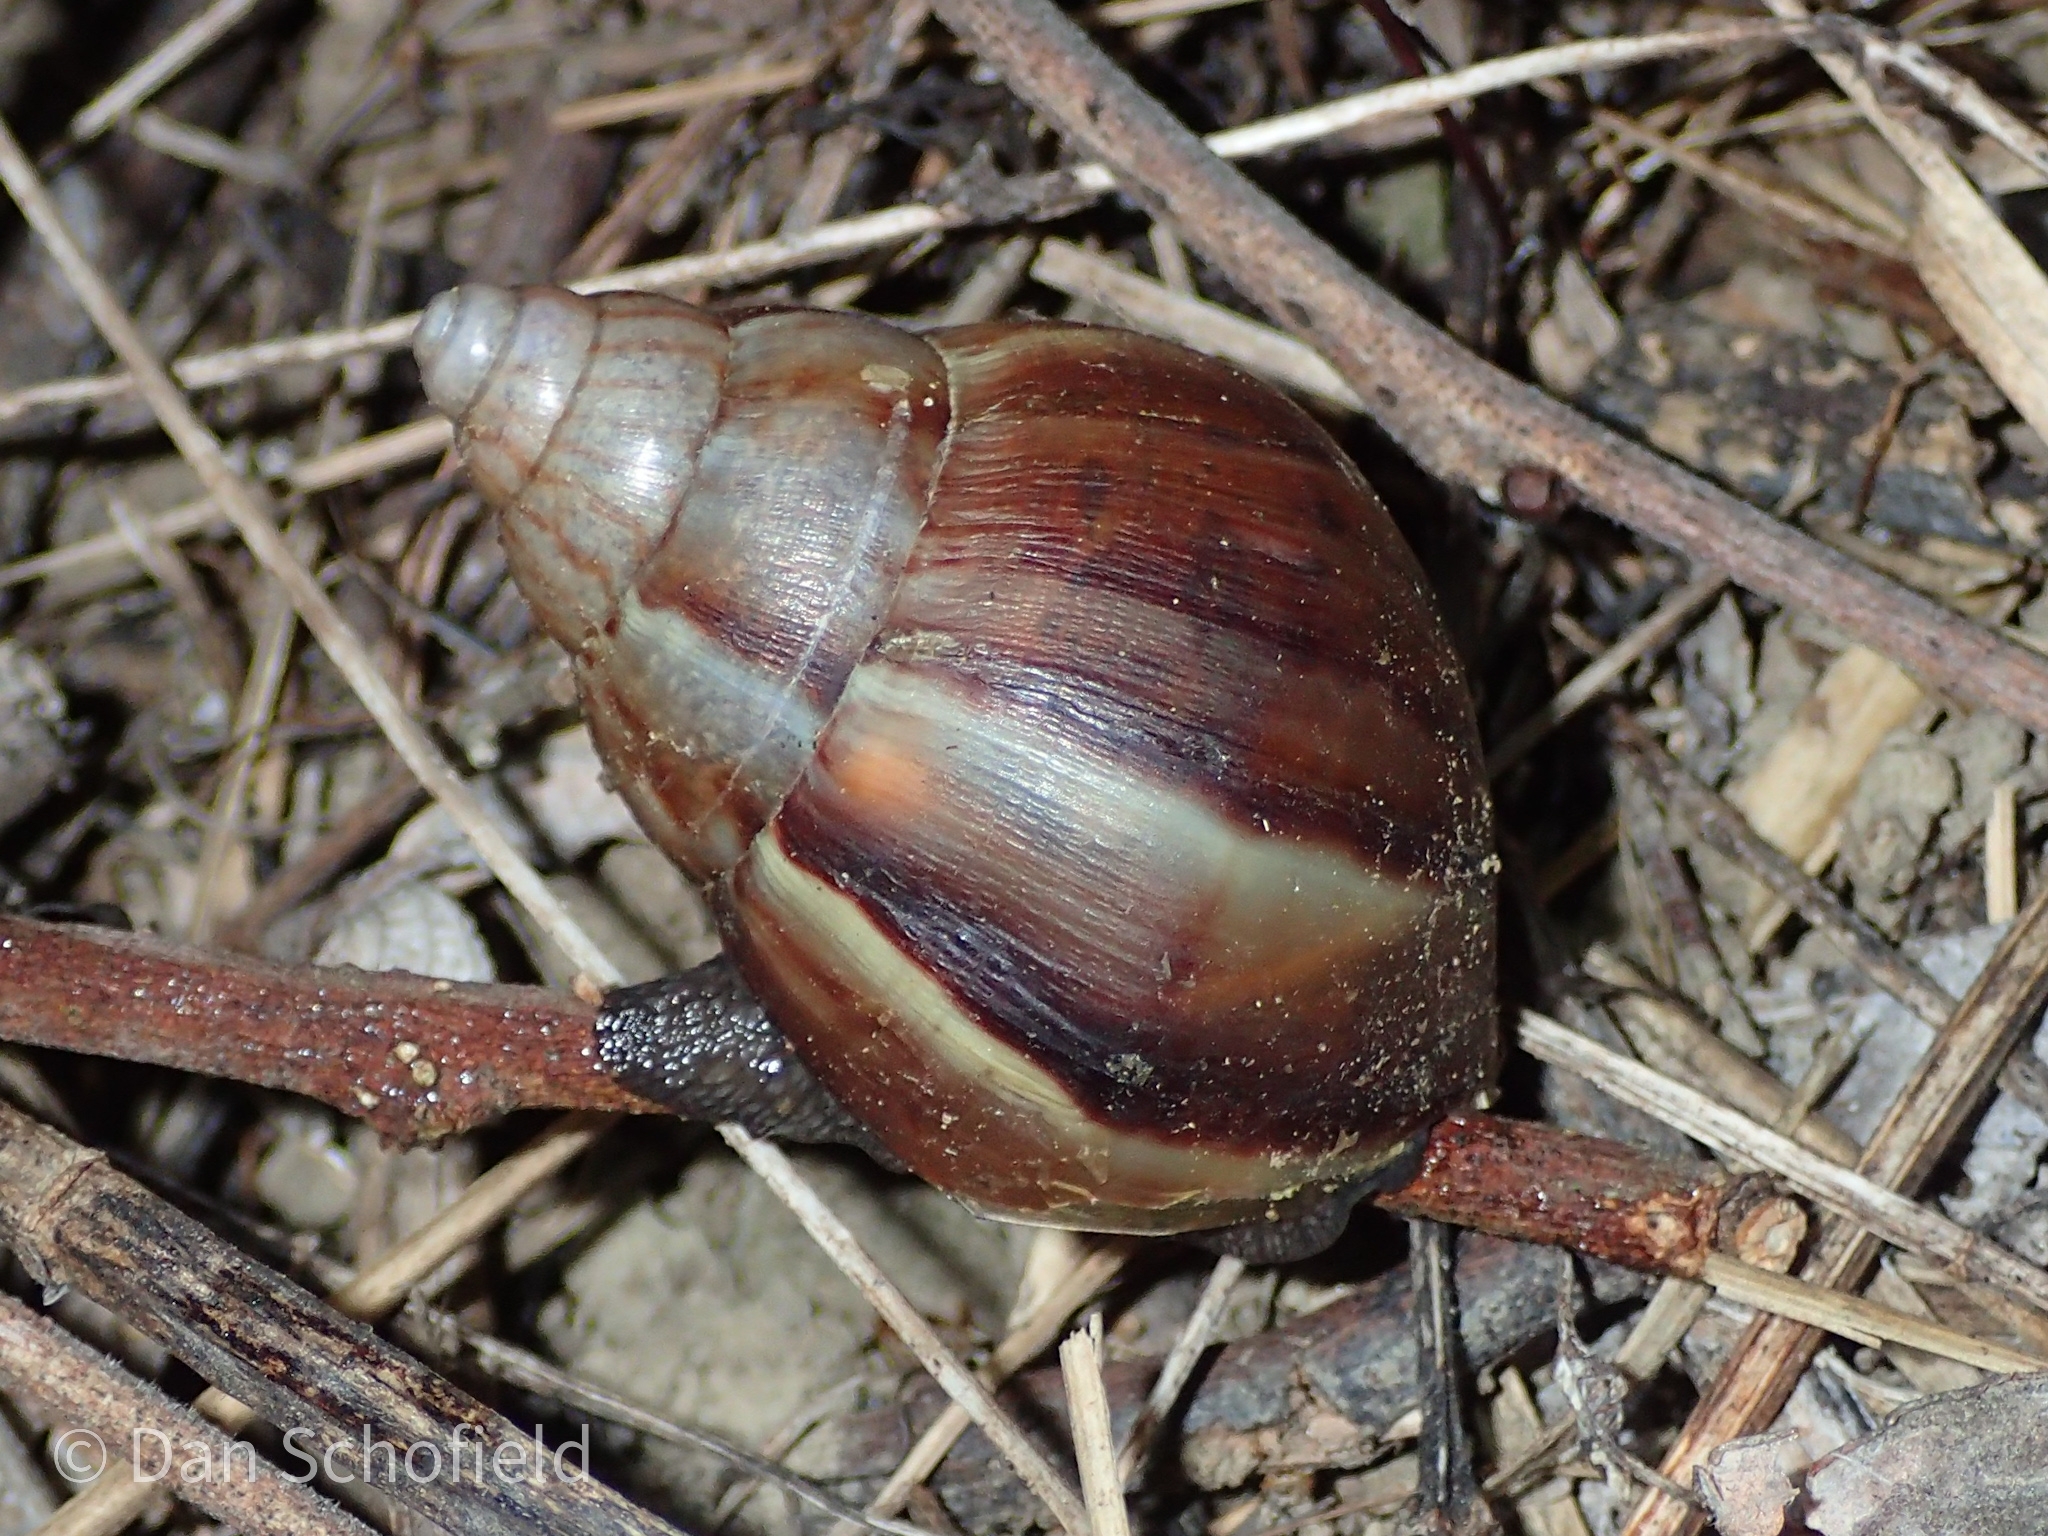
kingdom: Animalia
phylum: Mollusca
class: Gastropoda
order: Stylommatophora
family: Achatinidae
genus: Lissachatina
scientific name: Lissachatina fulica
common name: Giant african snail
